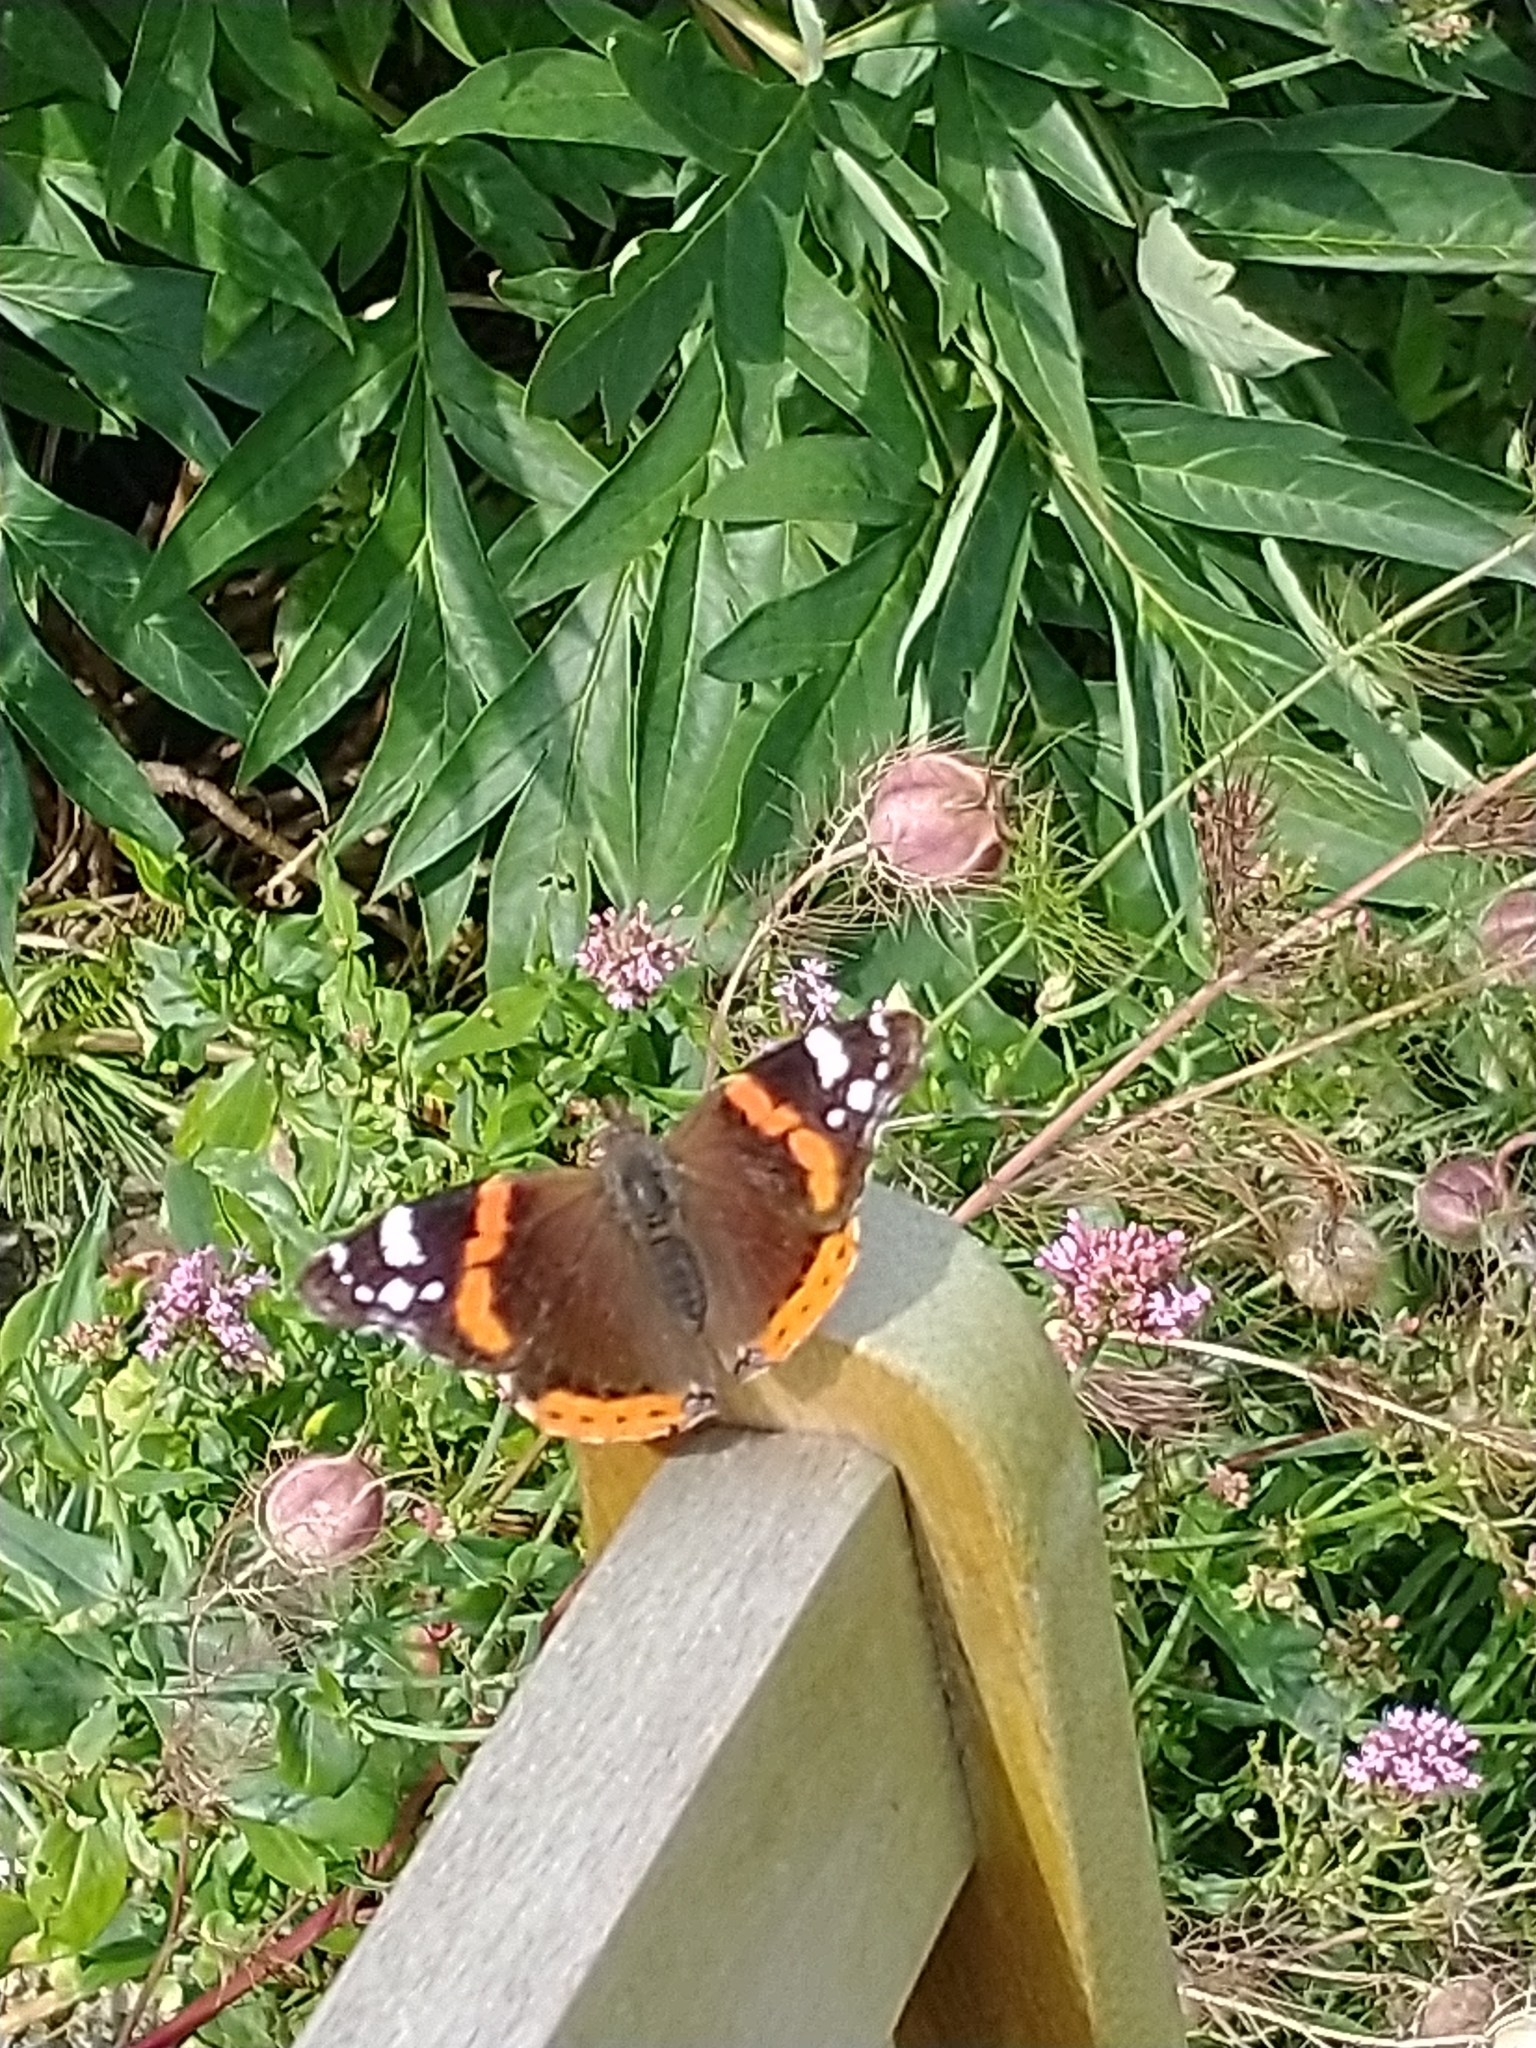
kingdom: Animalia
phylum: Arthropoda
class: Insecta
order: Lepidoptera
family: Nymphalidae
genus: Vanessa
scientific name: Vanessa atalanta
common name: Red admiral
